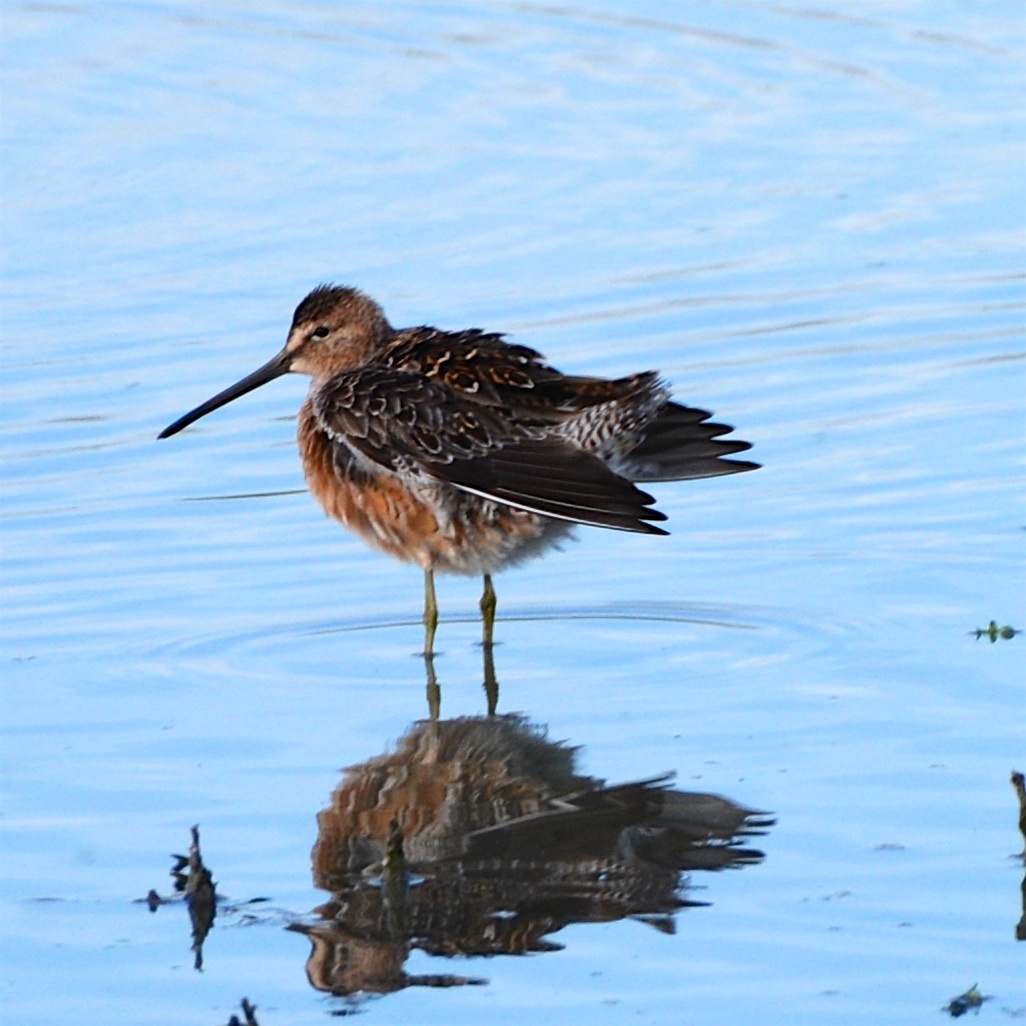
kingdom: Animalia
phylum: Chordata
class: Aves
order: Charadriiformes
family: Scolopacidae
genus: Limnodromus
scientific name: Limnodromus scolopaceus
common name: Long-billed dowitcher
